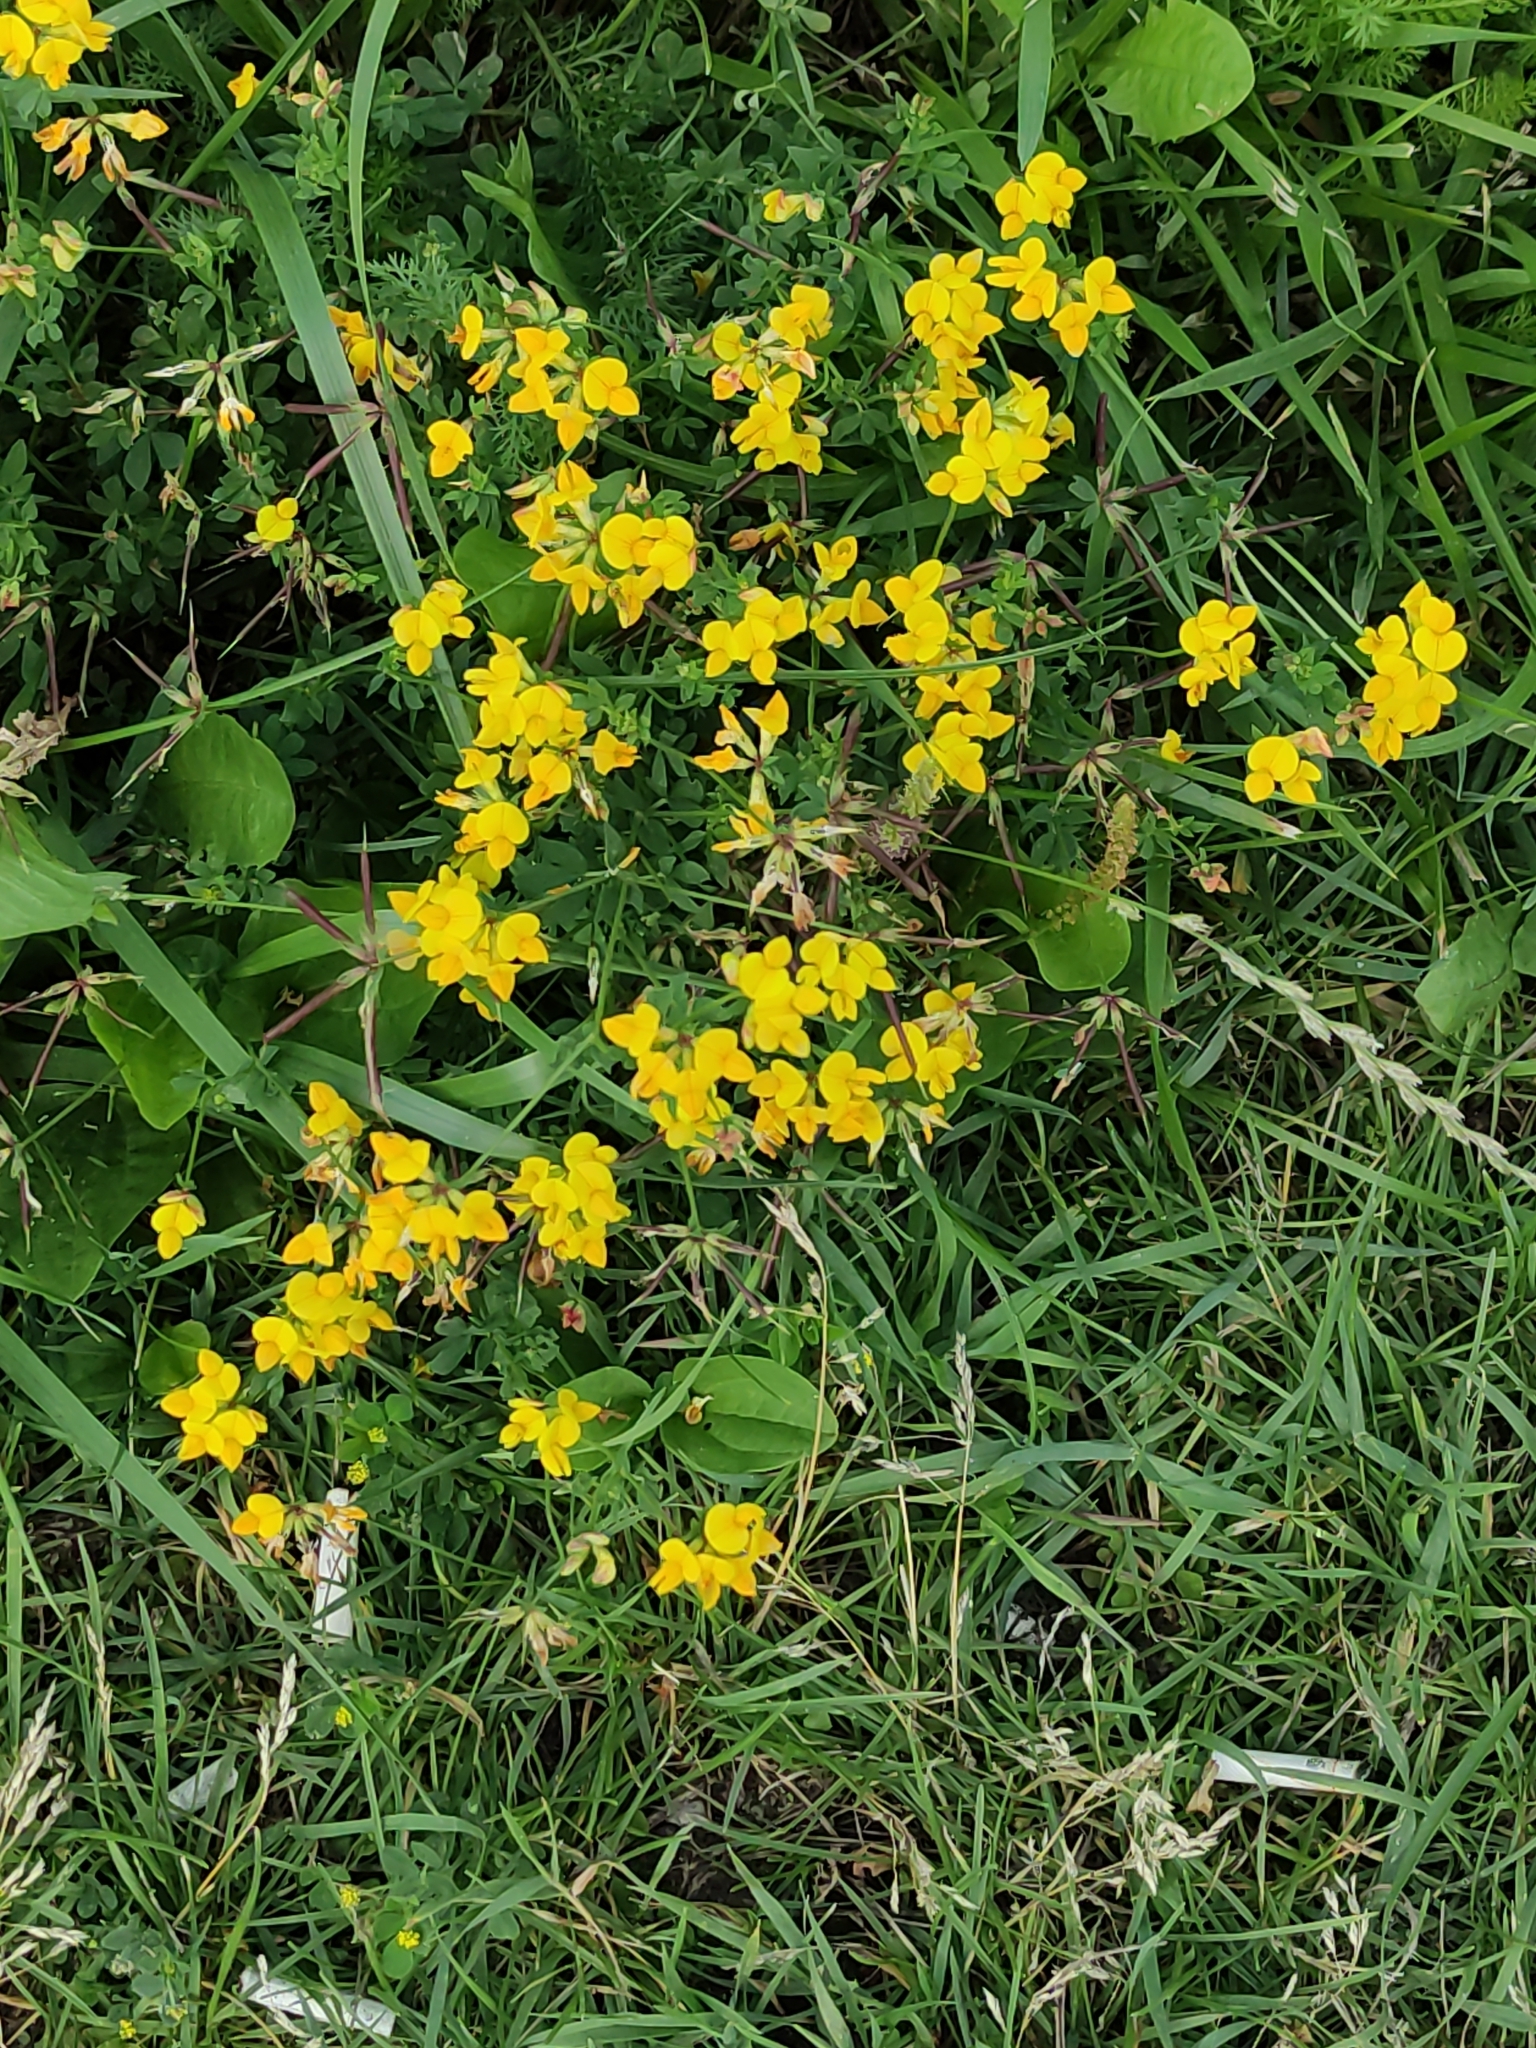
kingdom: Plantae
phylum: Tracheophyta
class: Magnoliopsida
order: Fabales
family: Fabaceae
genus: Lotus
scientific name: Lotus corniculatus
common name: Common bird's-foot-trefoil
